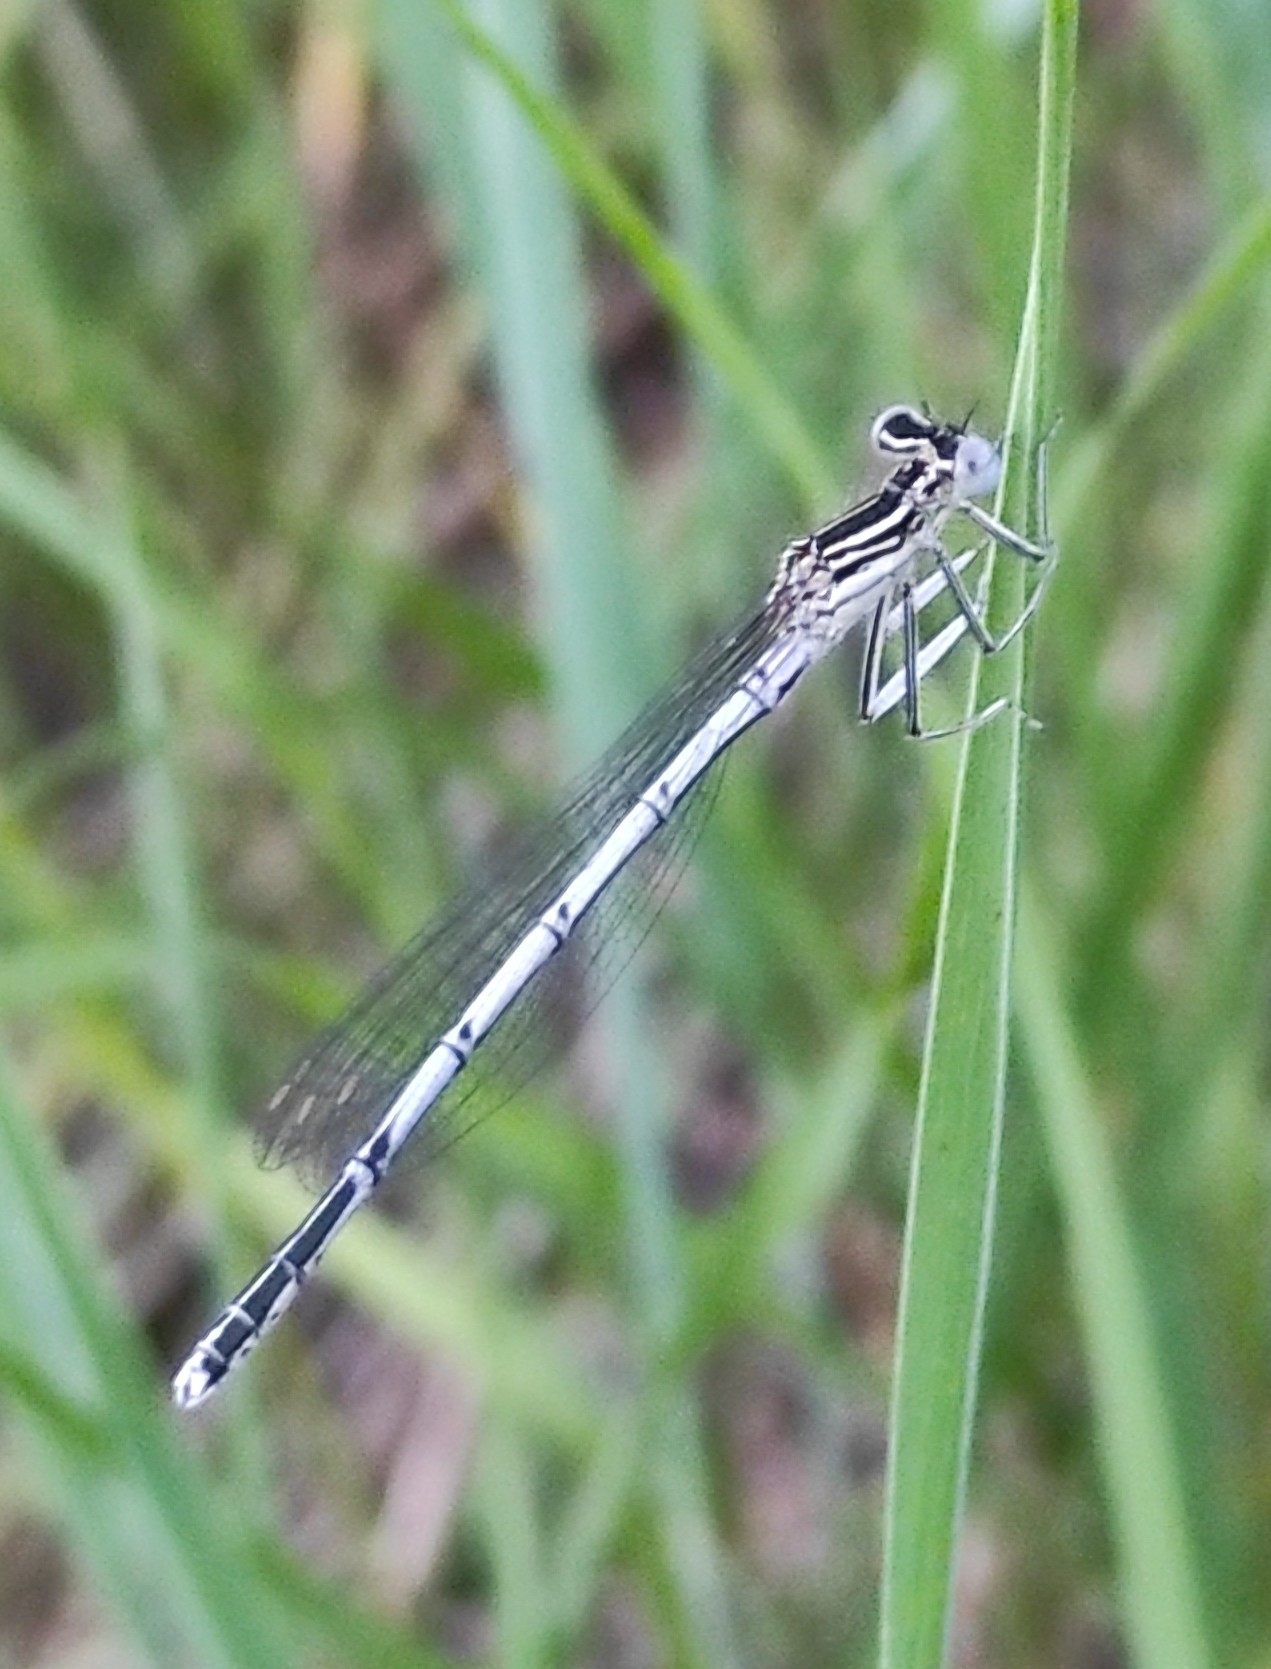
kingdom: Animalia
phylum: Arthropoda
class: Insecta
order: Odonata
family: Platycnemididae
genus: Platycnemis
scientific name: Platycnemis pennipes
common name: White-legged damselfly
